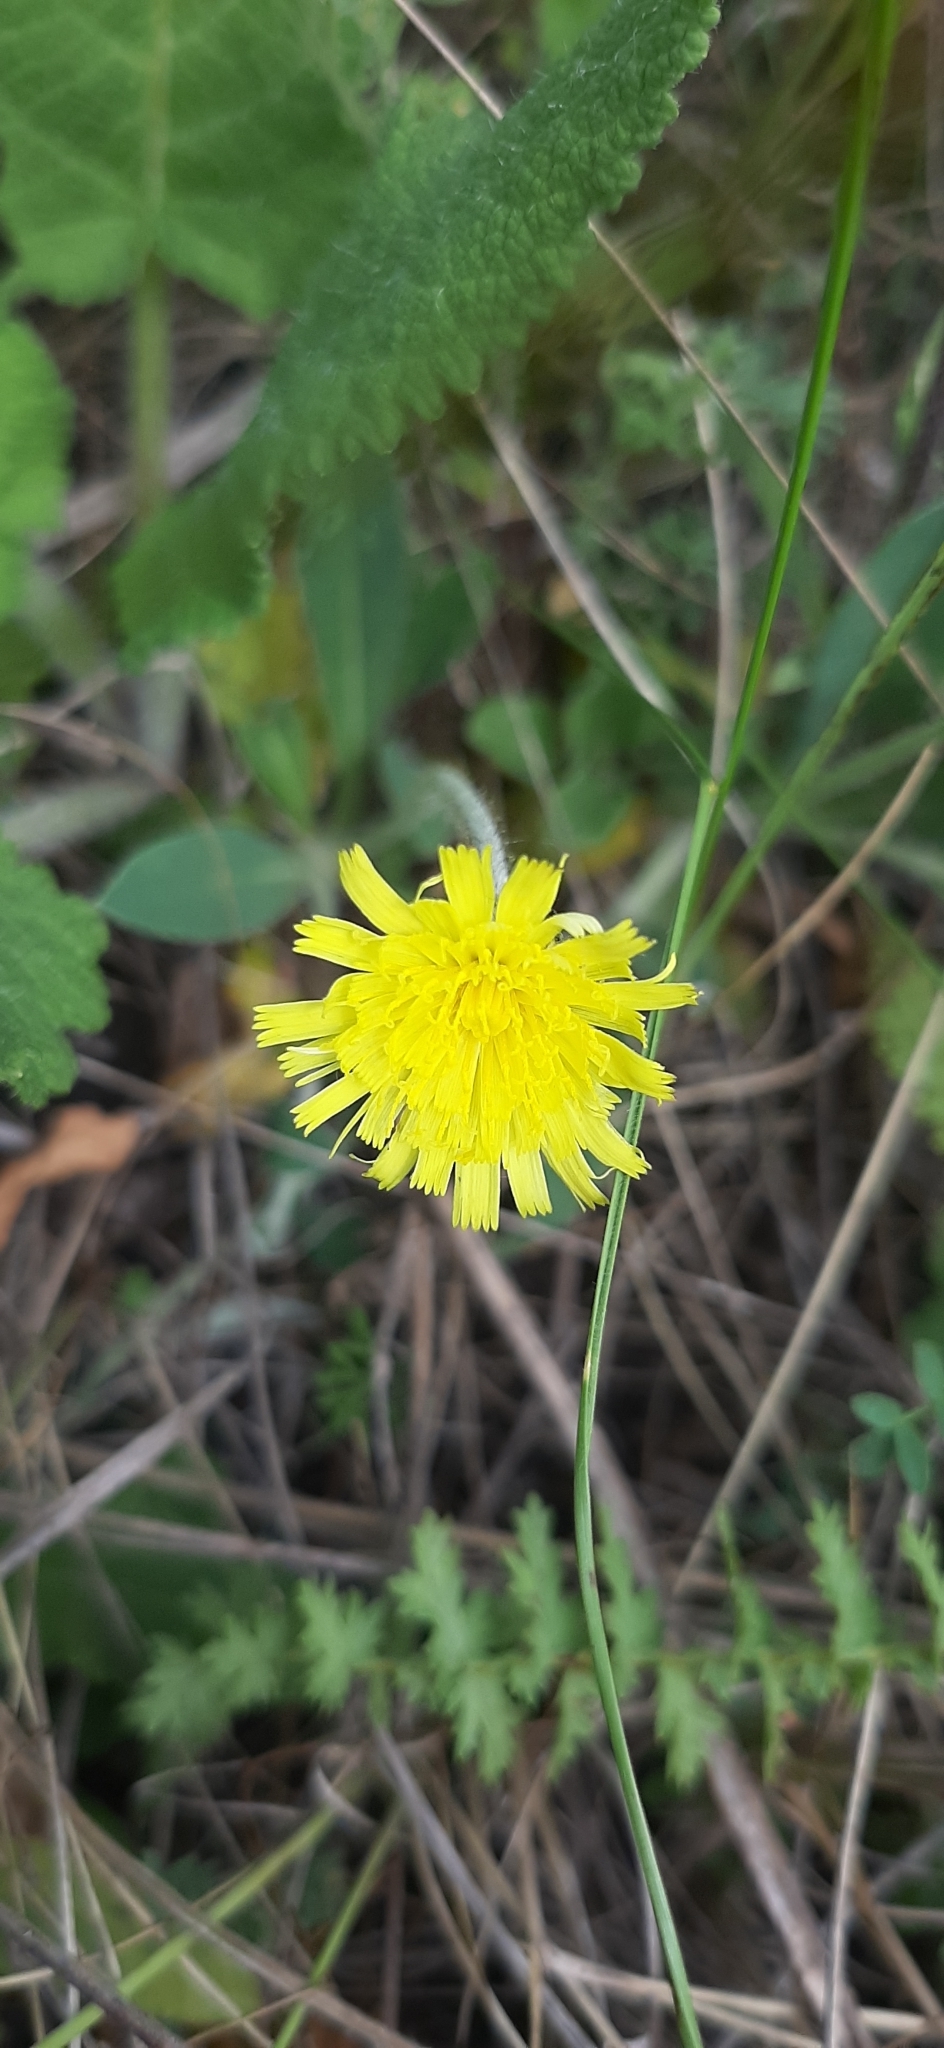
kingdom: Plantae
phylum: Tracheophyta
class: Magnoliopsida
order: Asterales
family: Asteraceae
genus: Pilosella
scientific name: Pilosella officinarum
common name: Mouse-ear hawkweed
